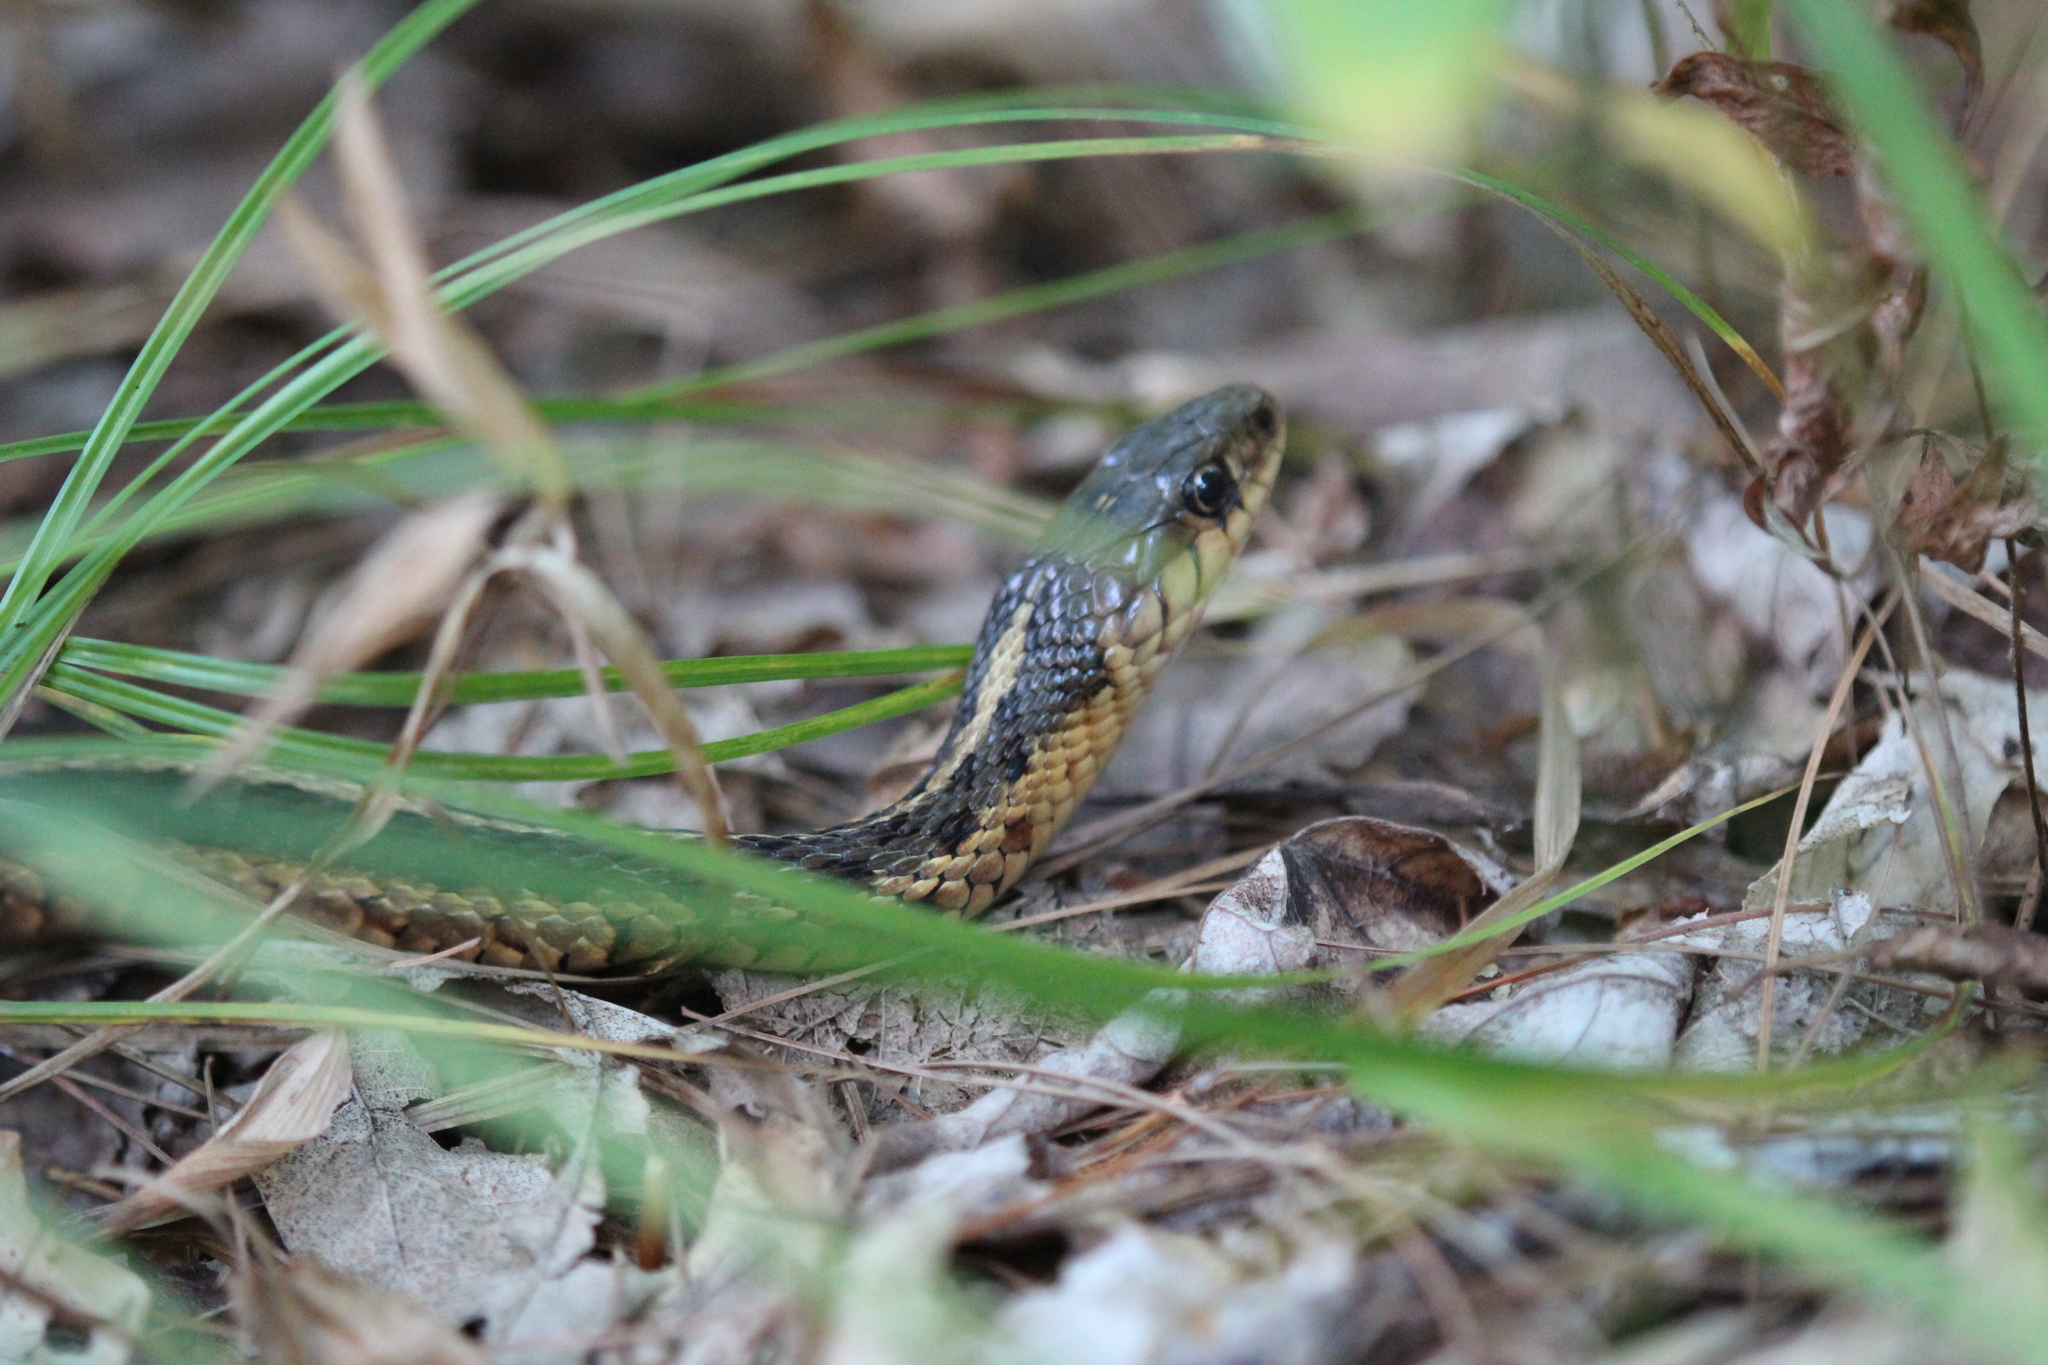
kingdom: Animalia
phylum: Chordata
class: Squamata
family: Colubridae
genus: Thamnophis
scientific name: Thamnophis sirtalis
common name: Common garter snake
